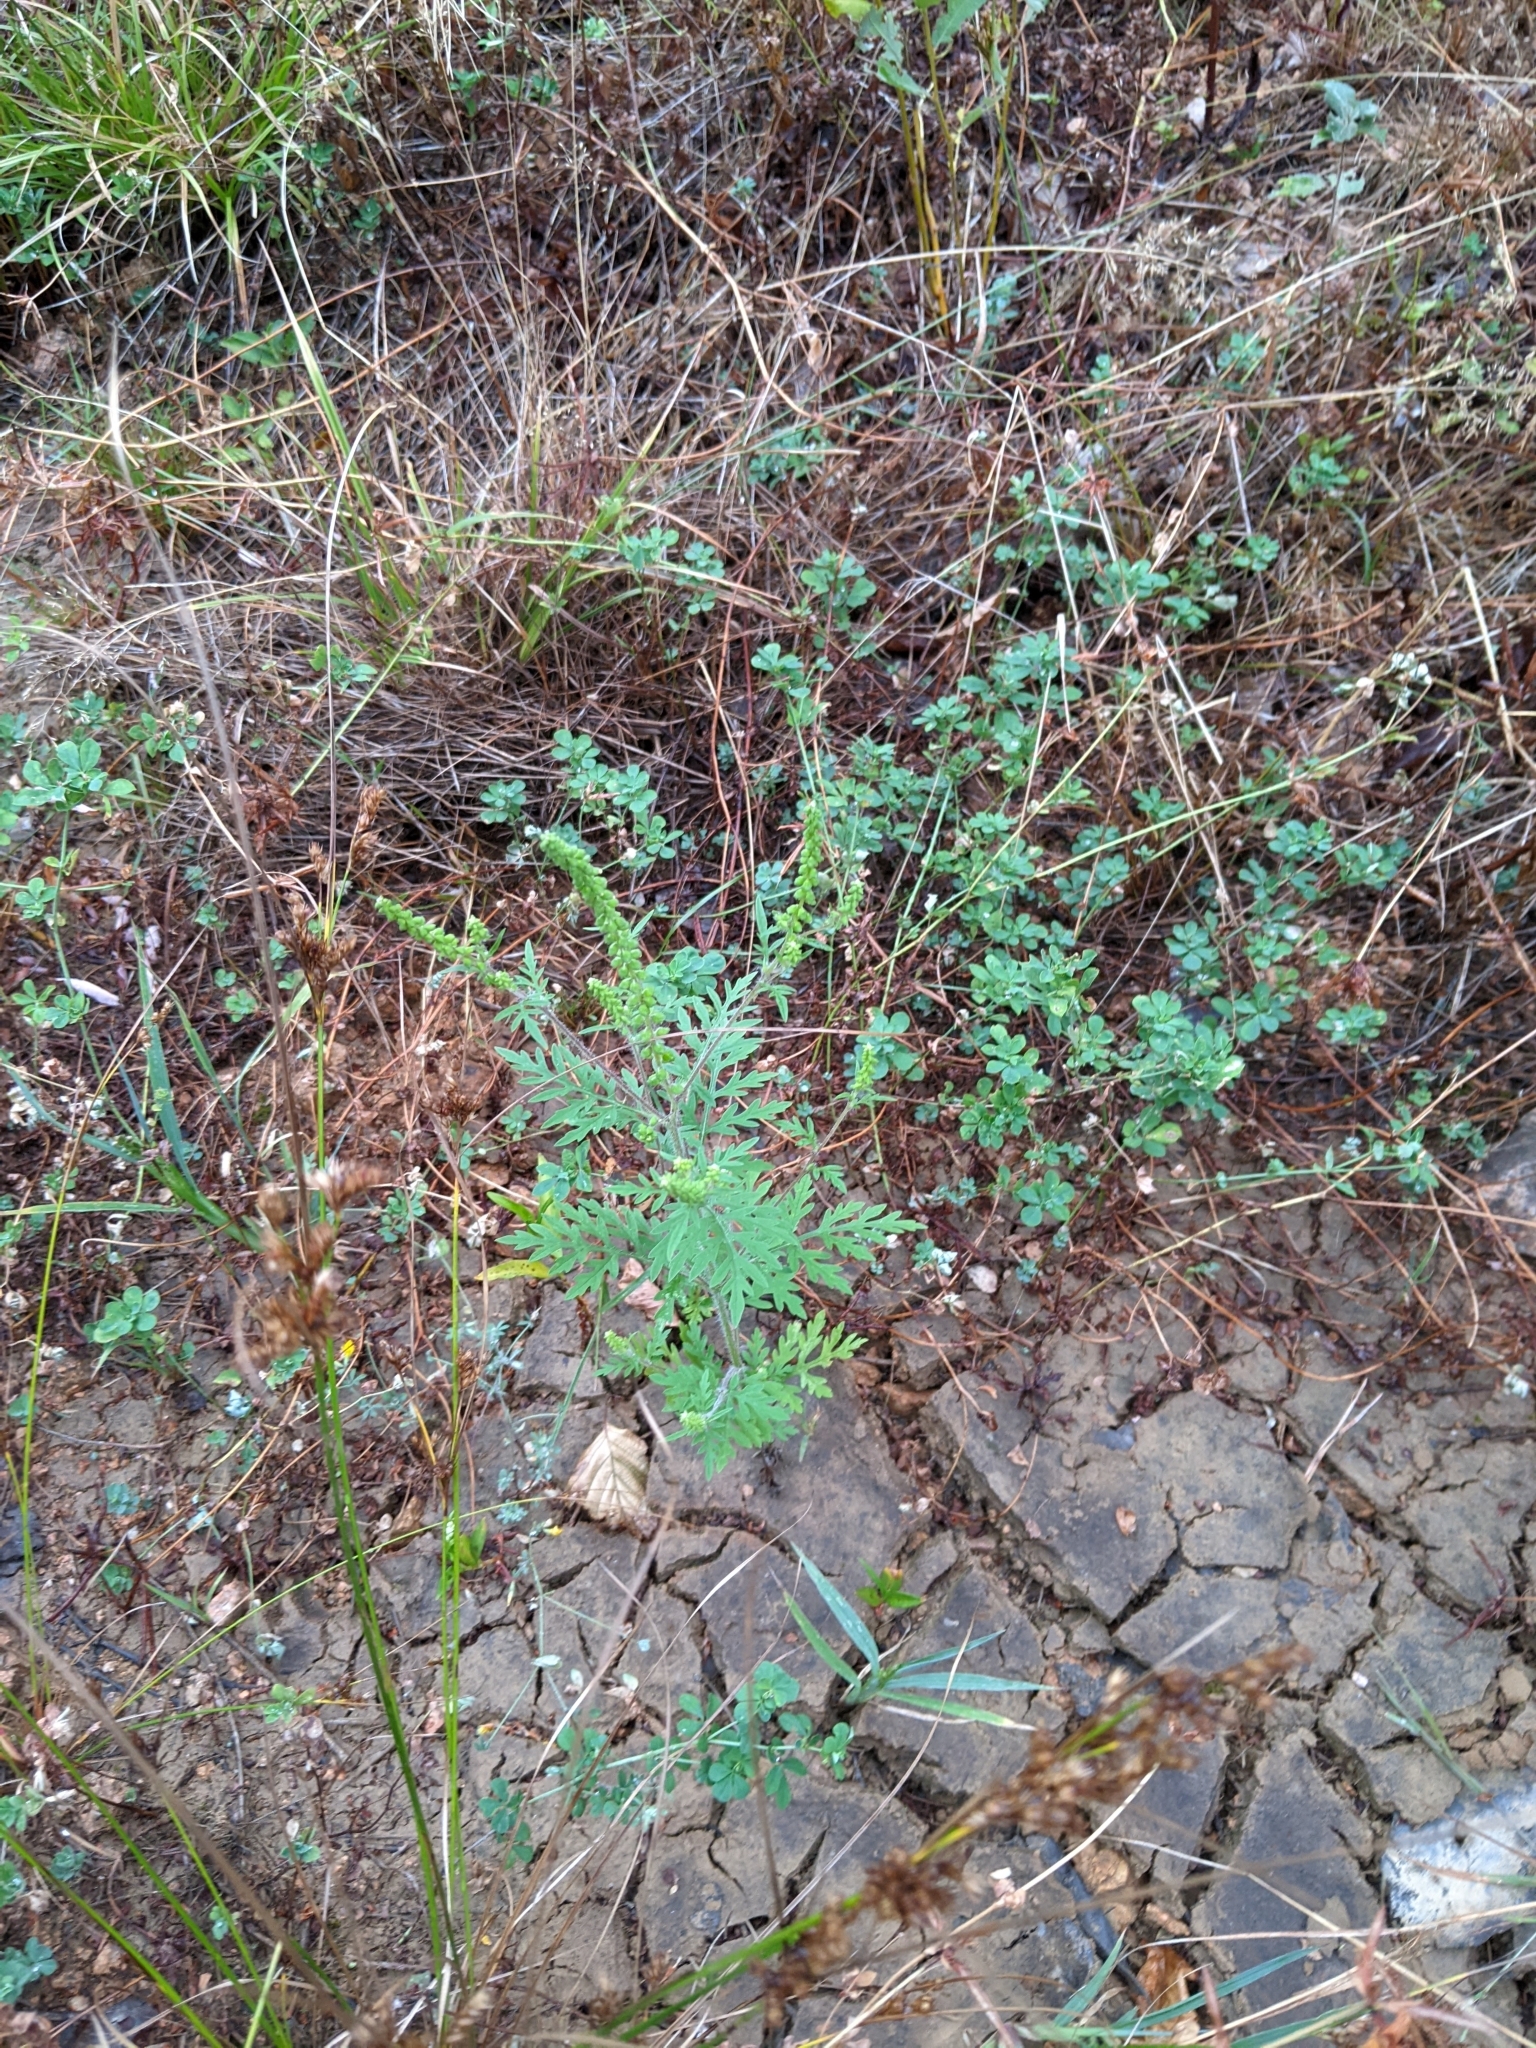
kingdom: Plantae
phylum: Tracheophyta
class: Magnoliopsida
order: Asterales
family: Asteraceae
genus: Ambrosia
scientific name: Ambrosia artemisiifolia
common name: Annual ragweed
